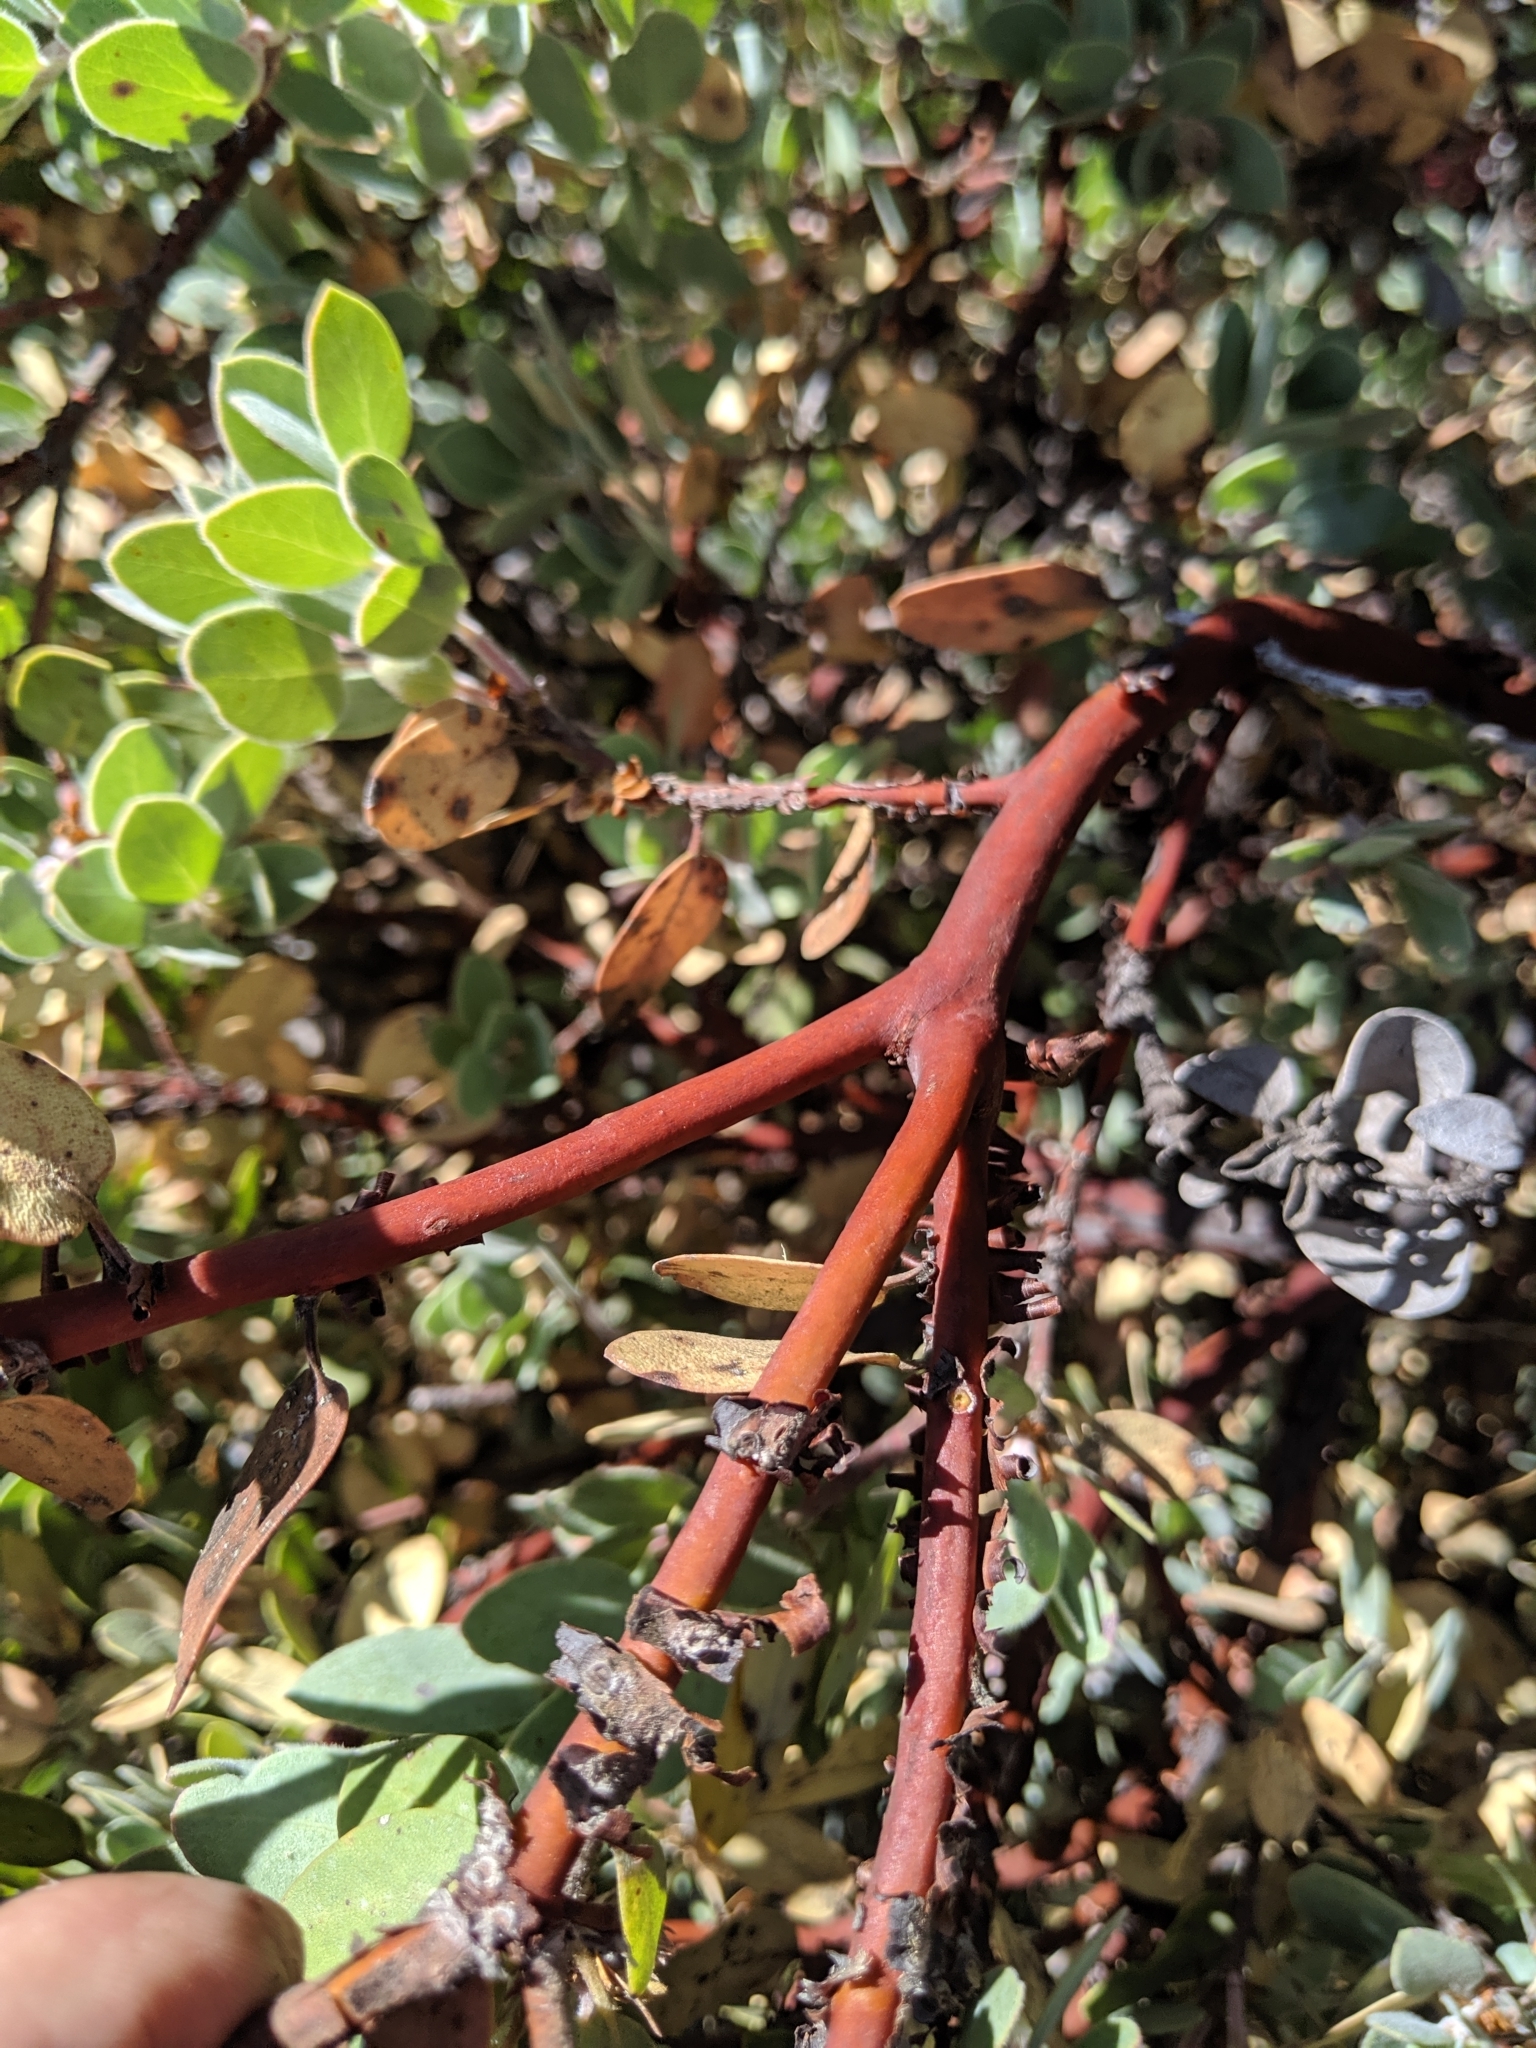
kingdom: Plantae
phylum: Tracheophyta
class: Magnoliopsida
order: Ericales
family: Ericaceae
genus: Arctostaphylos
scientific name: Arctostaphylos obispoensis
